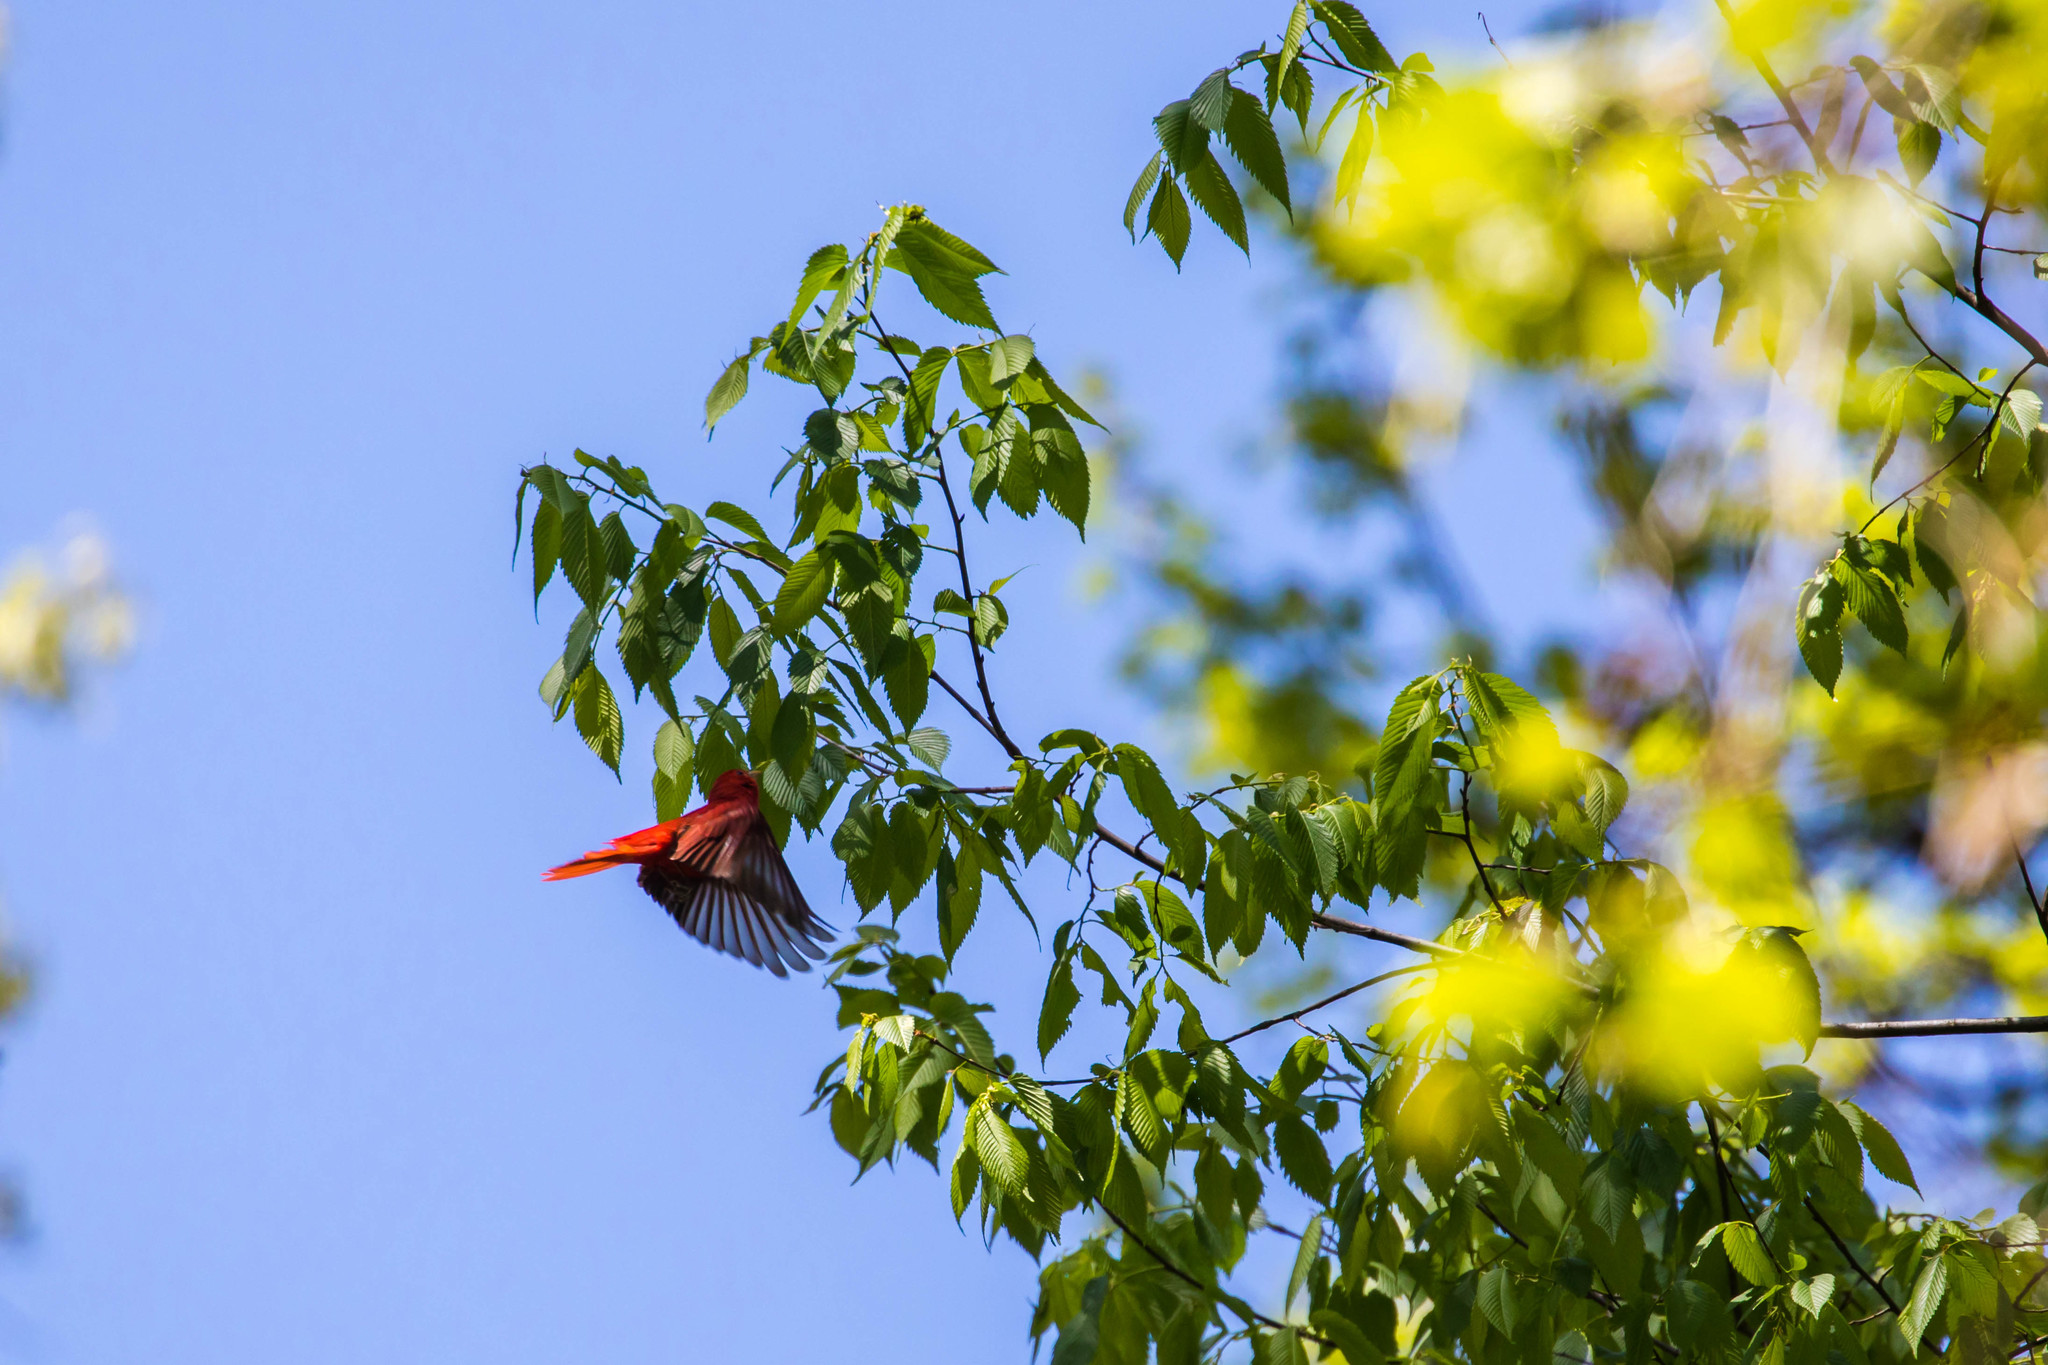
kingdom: Animalia
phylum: Chordata
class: Aves
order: Passeriformes
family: Cardinalidae
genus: Piranga
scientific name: Piranga rubra
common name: Summer tanager
